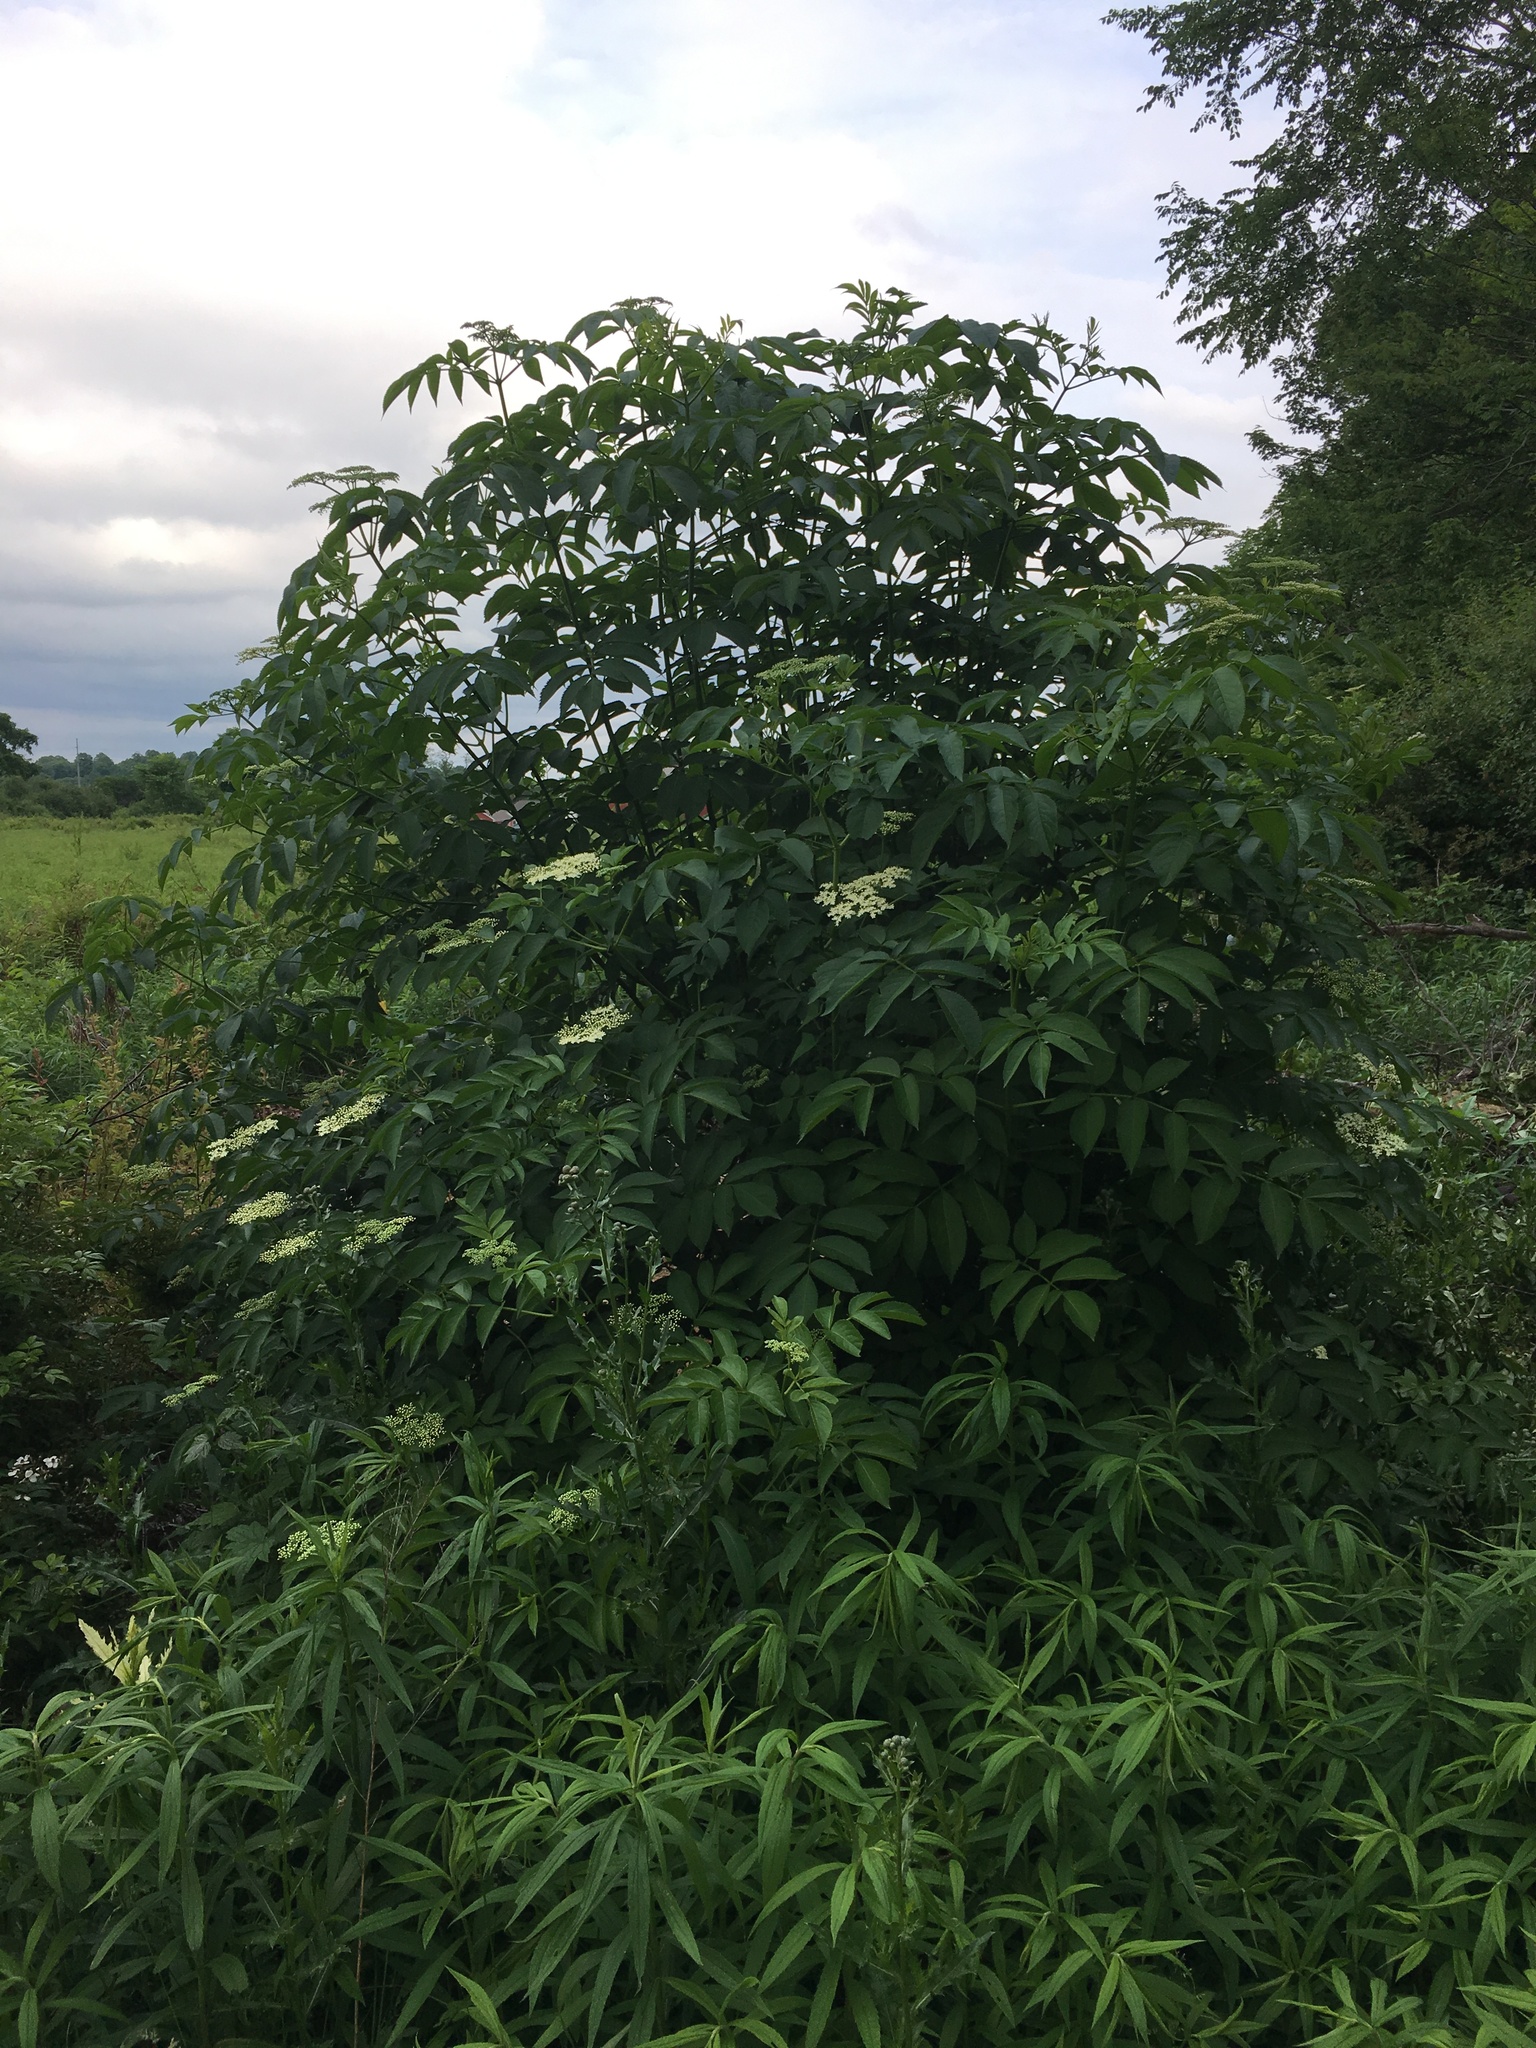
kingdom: Plantae
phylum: Tracheophyta
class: Magnoliopsida
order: Dipsacales
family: Viburnaceae
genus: Sambucus
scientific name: Sambucus canadensis
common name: American elder
